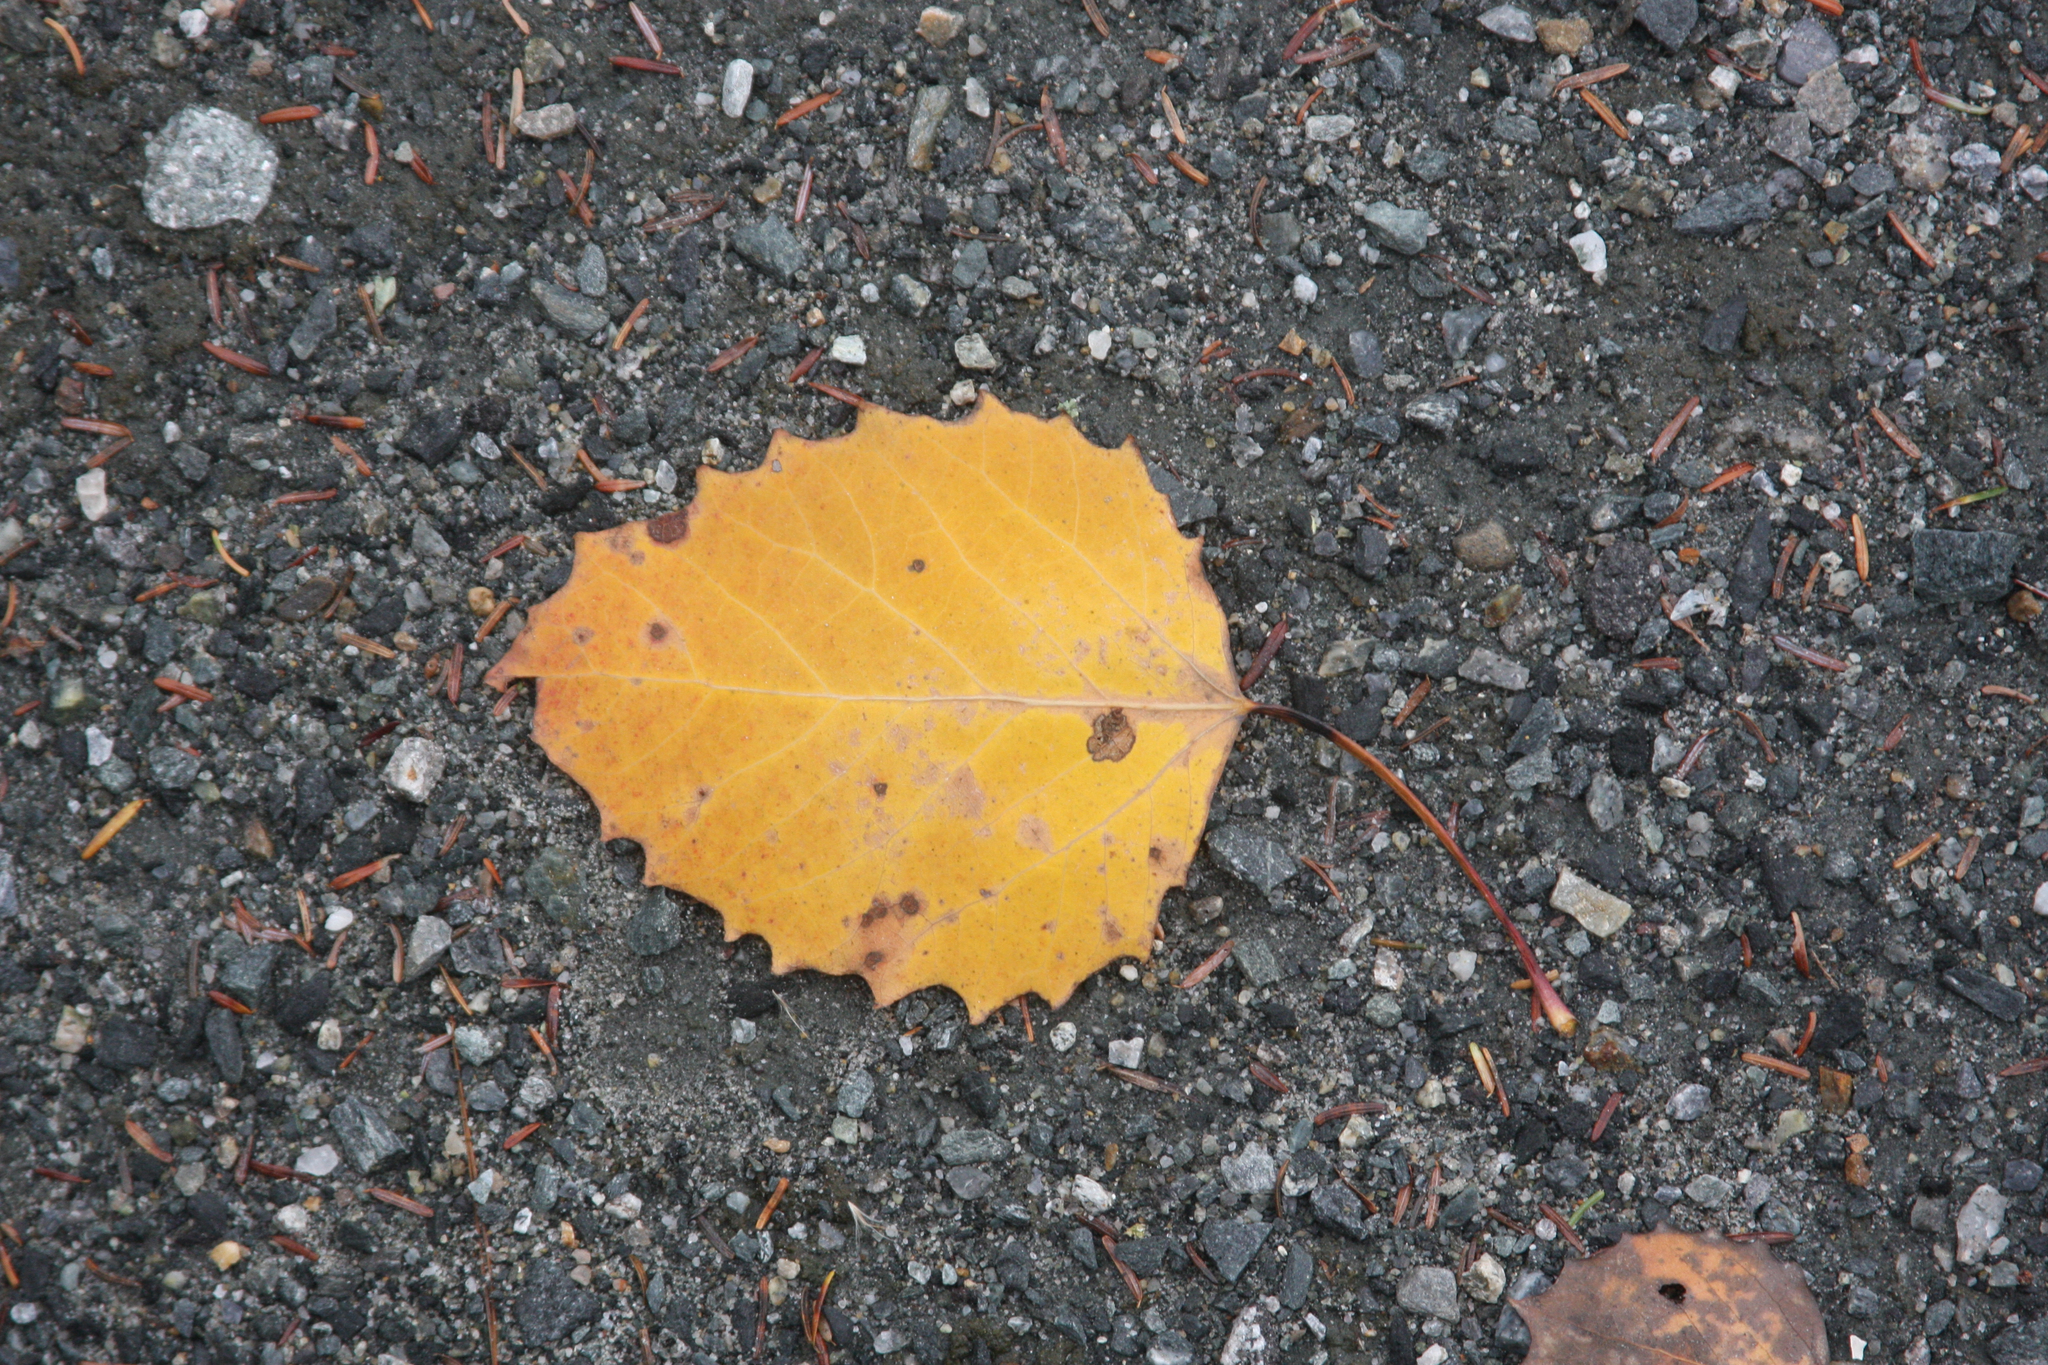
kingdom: Plantae
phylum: Tracheophyta
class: Magnoliopsida
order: Malpighiales
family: Salicaceae
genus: Populus
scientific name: Populus grandidentata
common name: Bigtooth aspen
